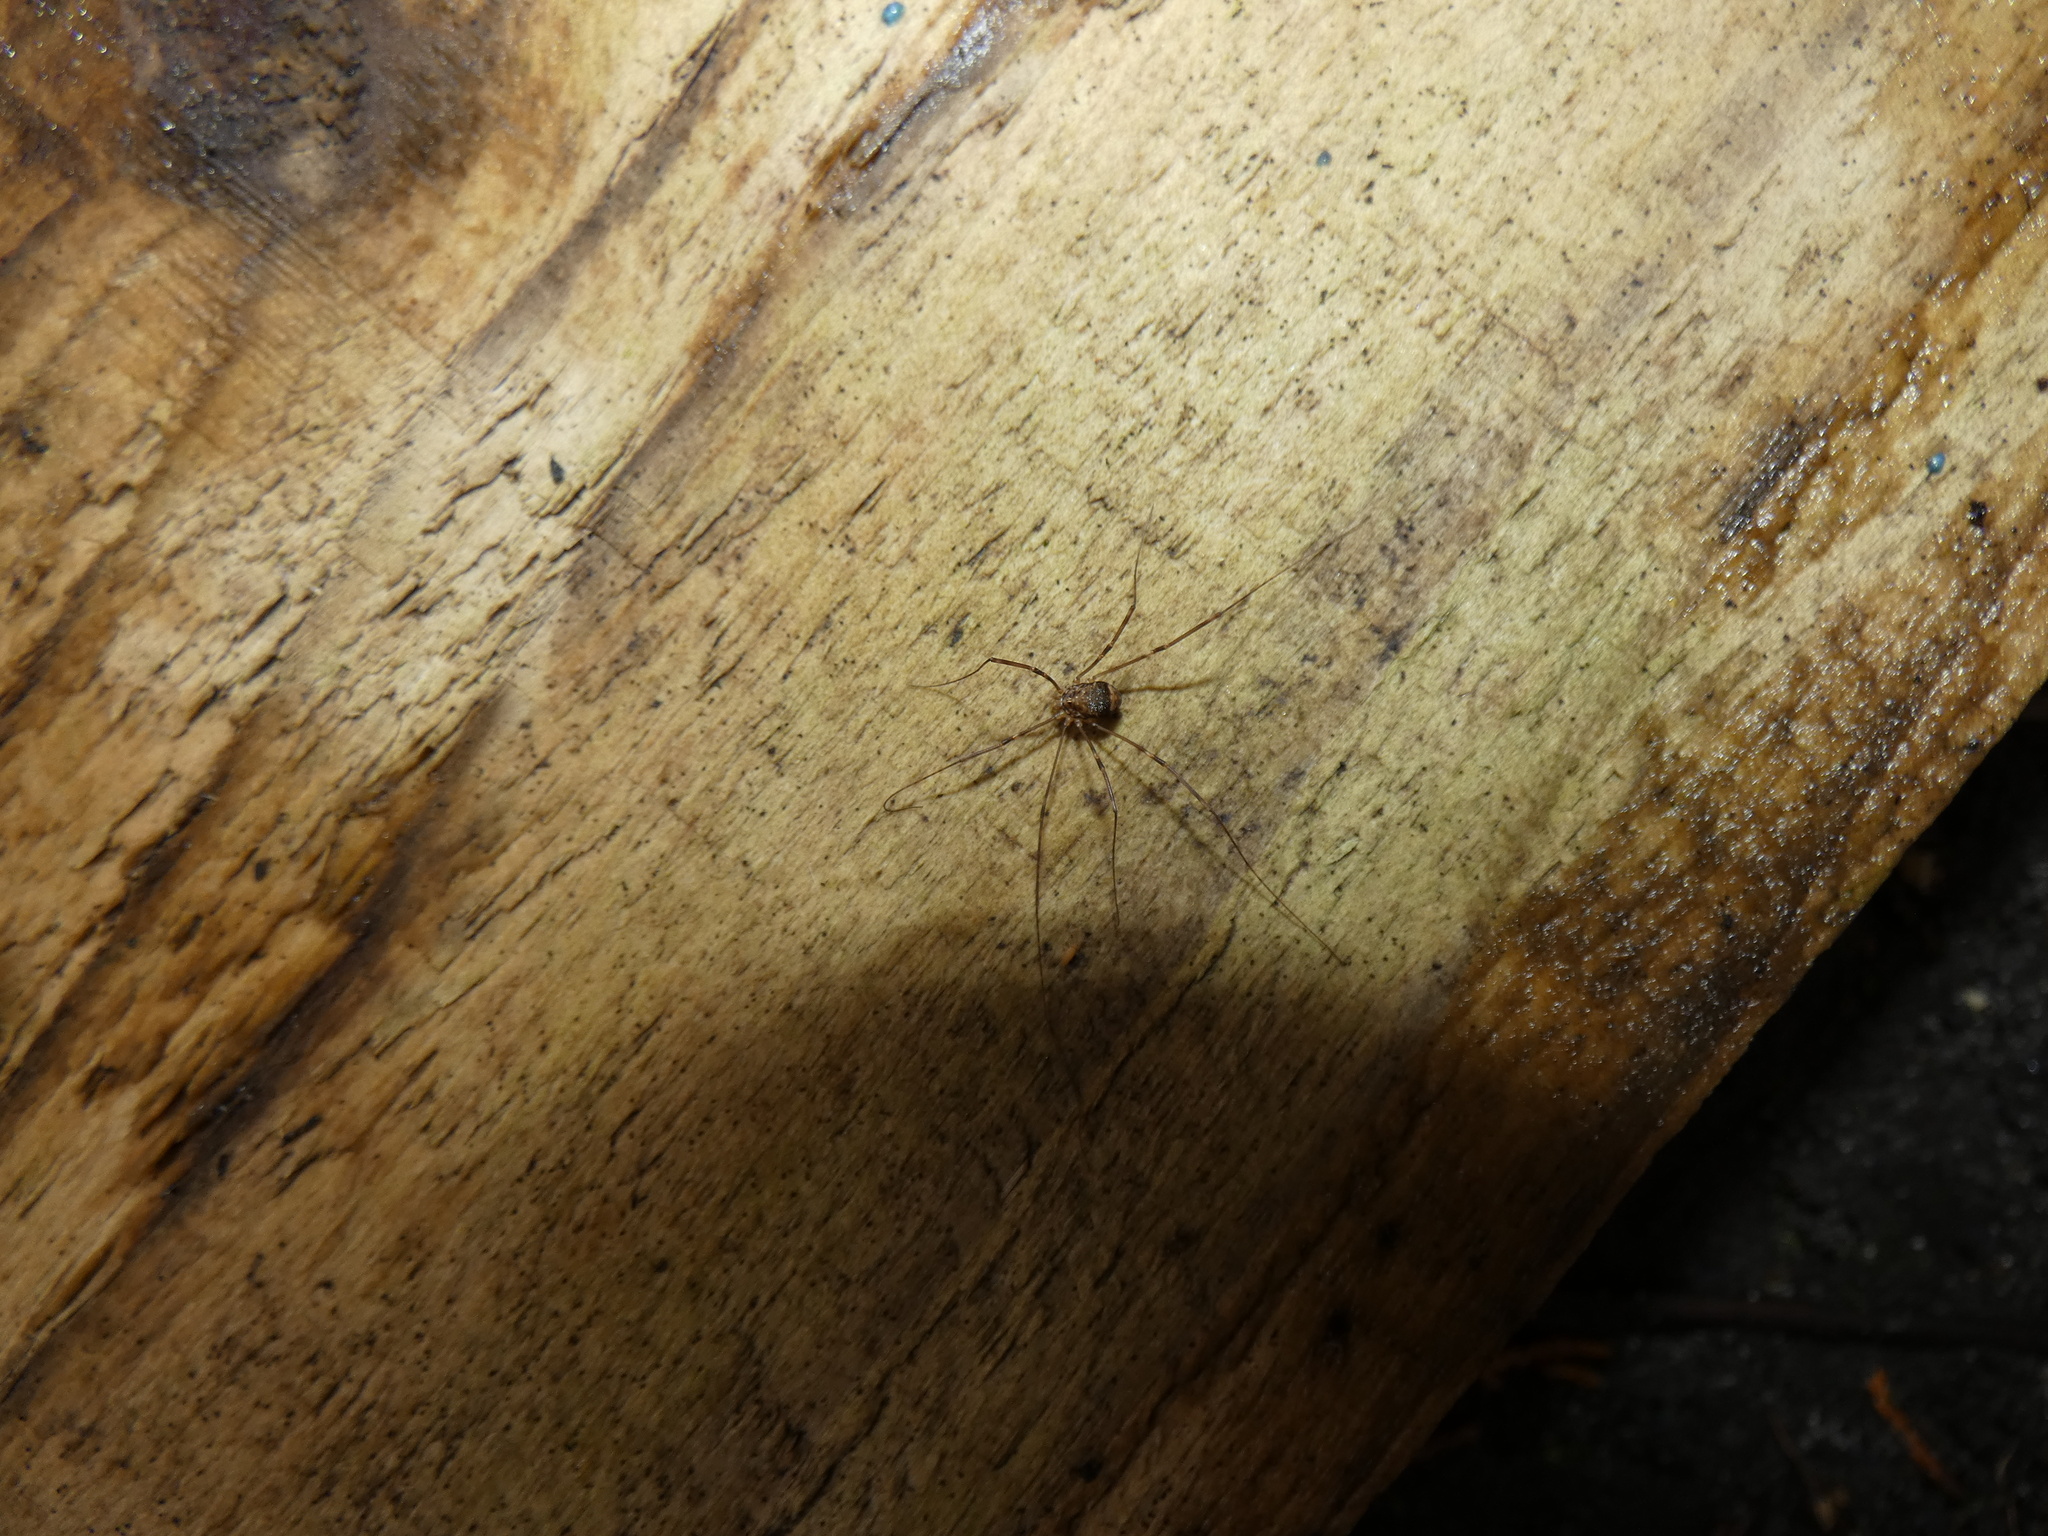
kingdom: Animalia
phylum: Arthropoda
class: Arachnida
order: Opiliones
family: Sclerosomatidae
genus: Leiobunum
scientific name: Leiobunum blackwalli
